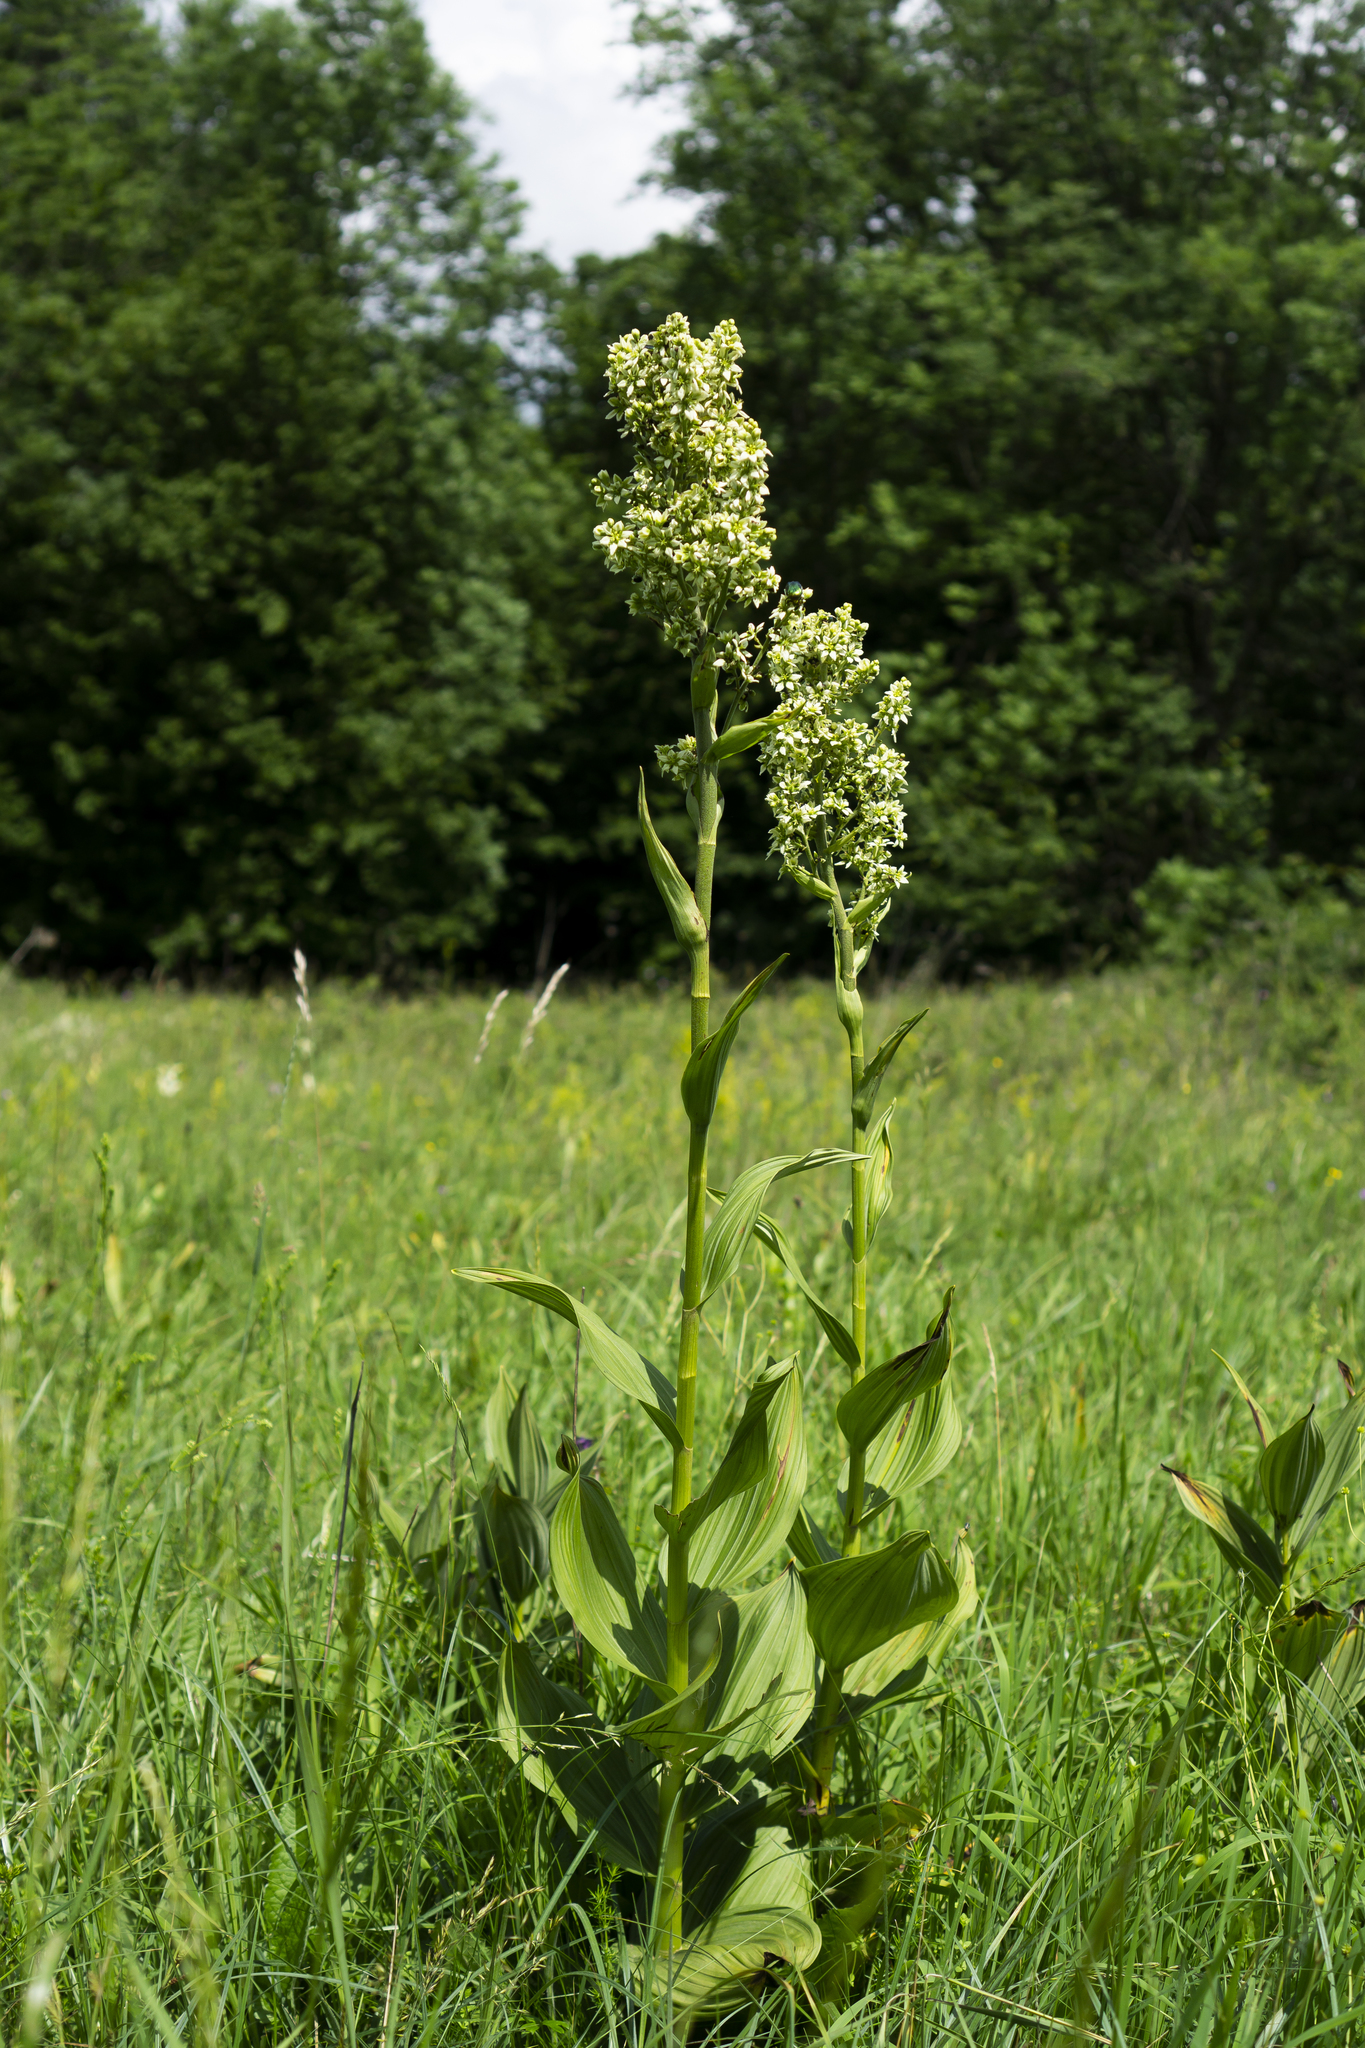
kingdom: Plantae
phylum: Tracheophyta
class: Liliopsida
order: Liliales
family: Melanthiaceae
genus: Veratrum
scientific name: Veratrum album
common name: White veratrum
